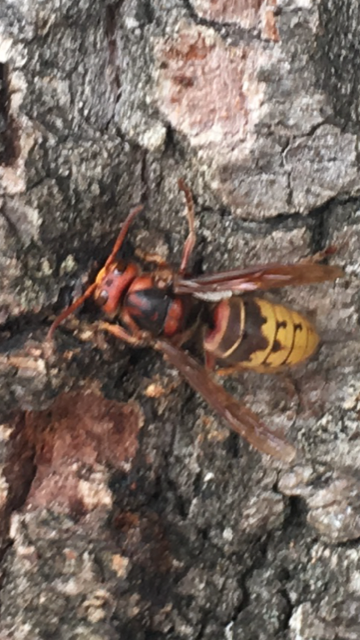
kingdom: Animalia
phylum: Arthropoda
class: Insecta
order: Hymenoptera
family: Vespidae
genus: Vespa
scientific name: Vespa crabro
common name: Hornet
